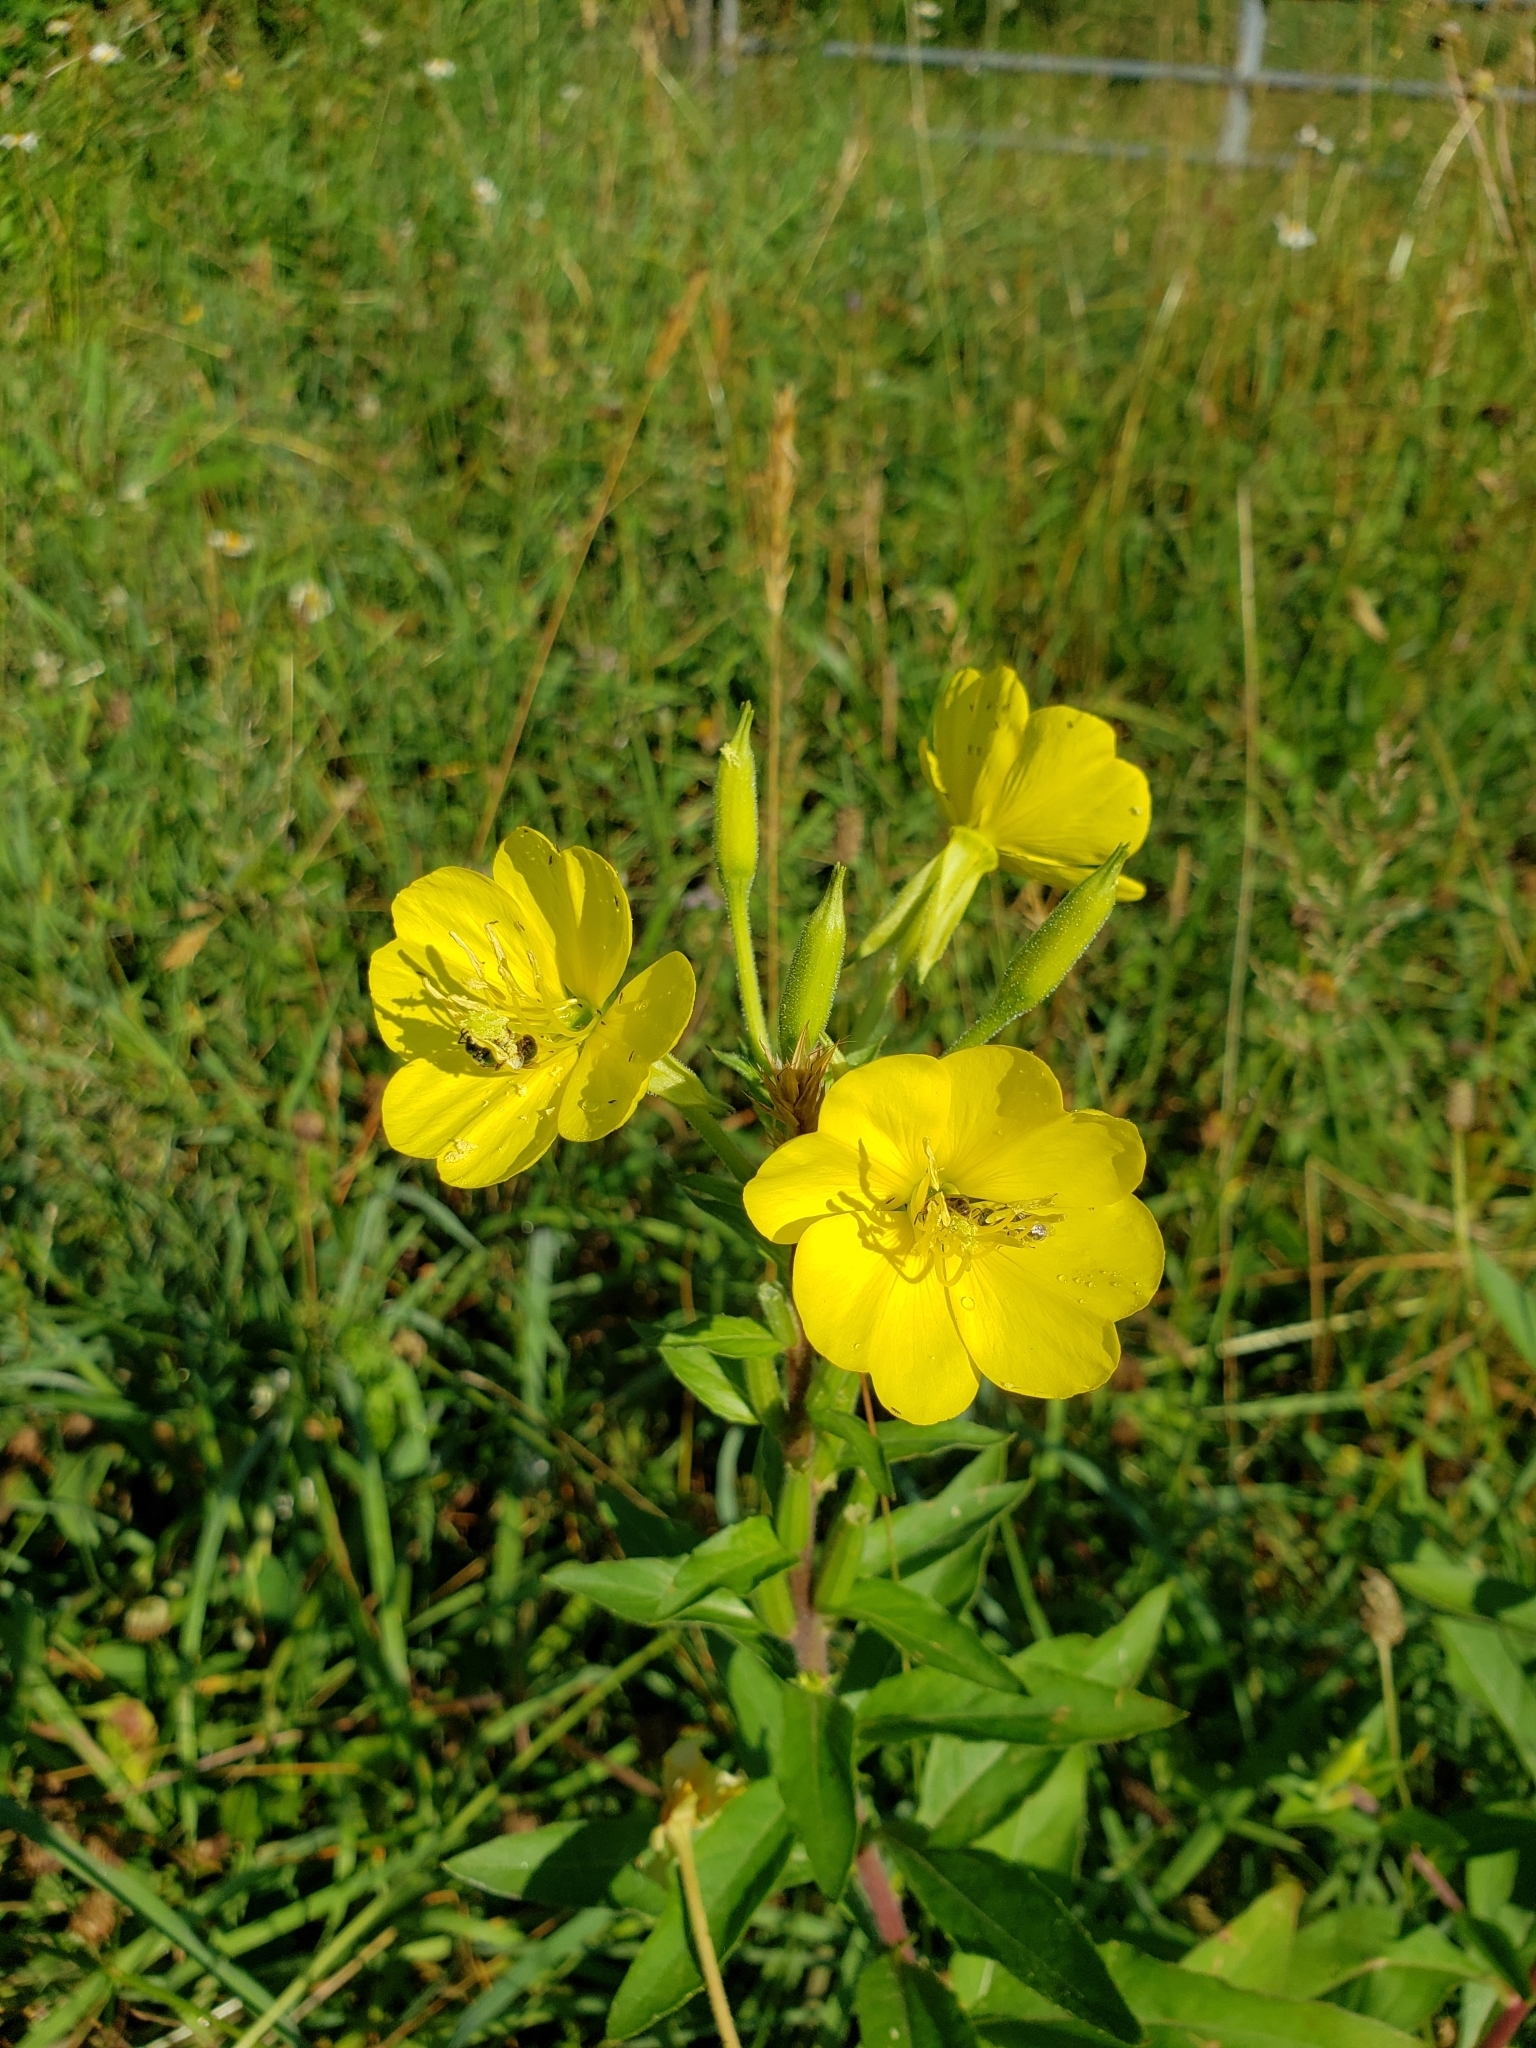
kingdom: Plantae
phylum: Tracheophyta
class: Magnoliopsida
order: Myrtales
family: Onagraceae
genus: Oenothera
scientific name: Oenothera biennis
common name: Common evening-primrose
